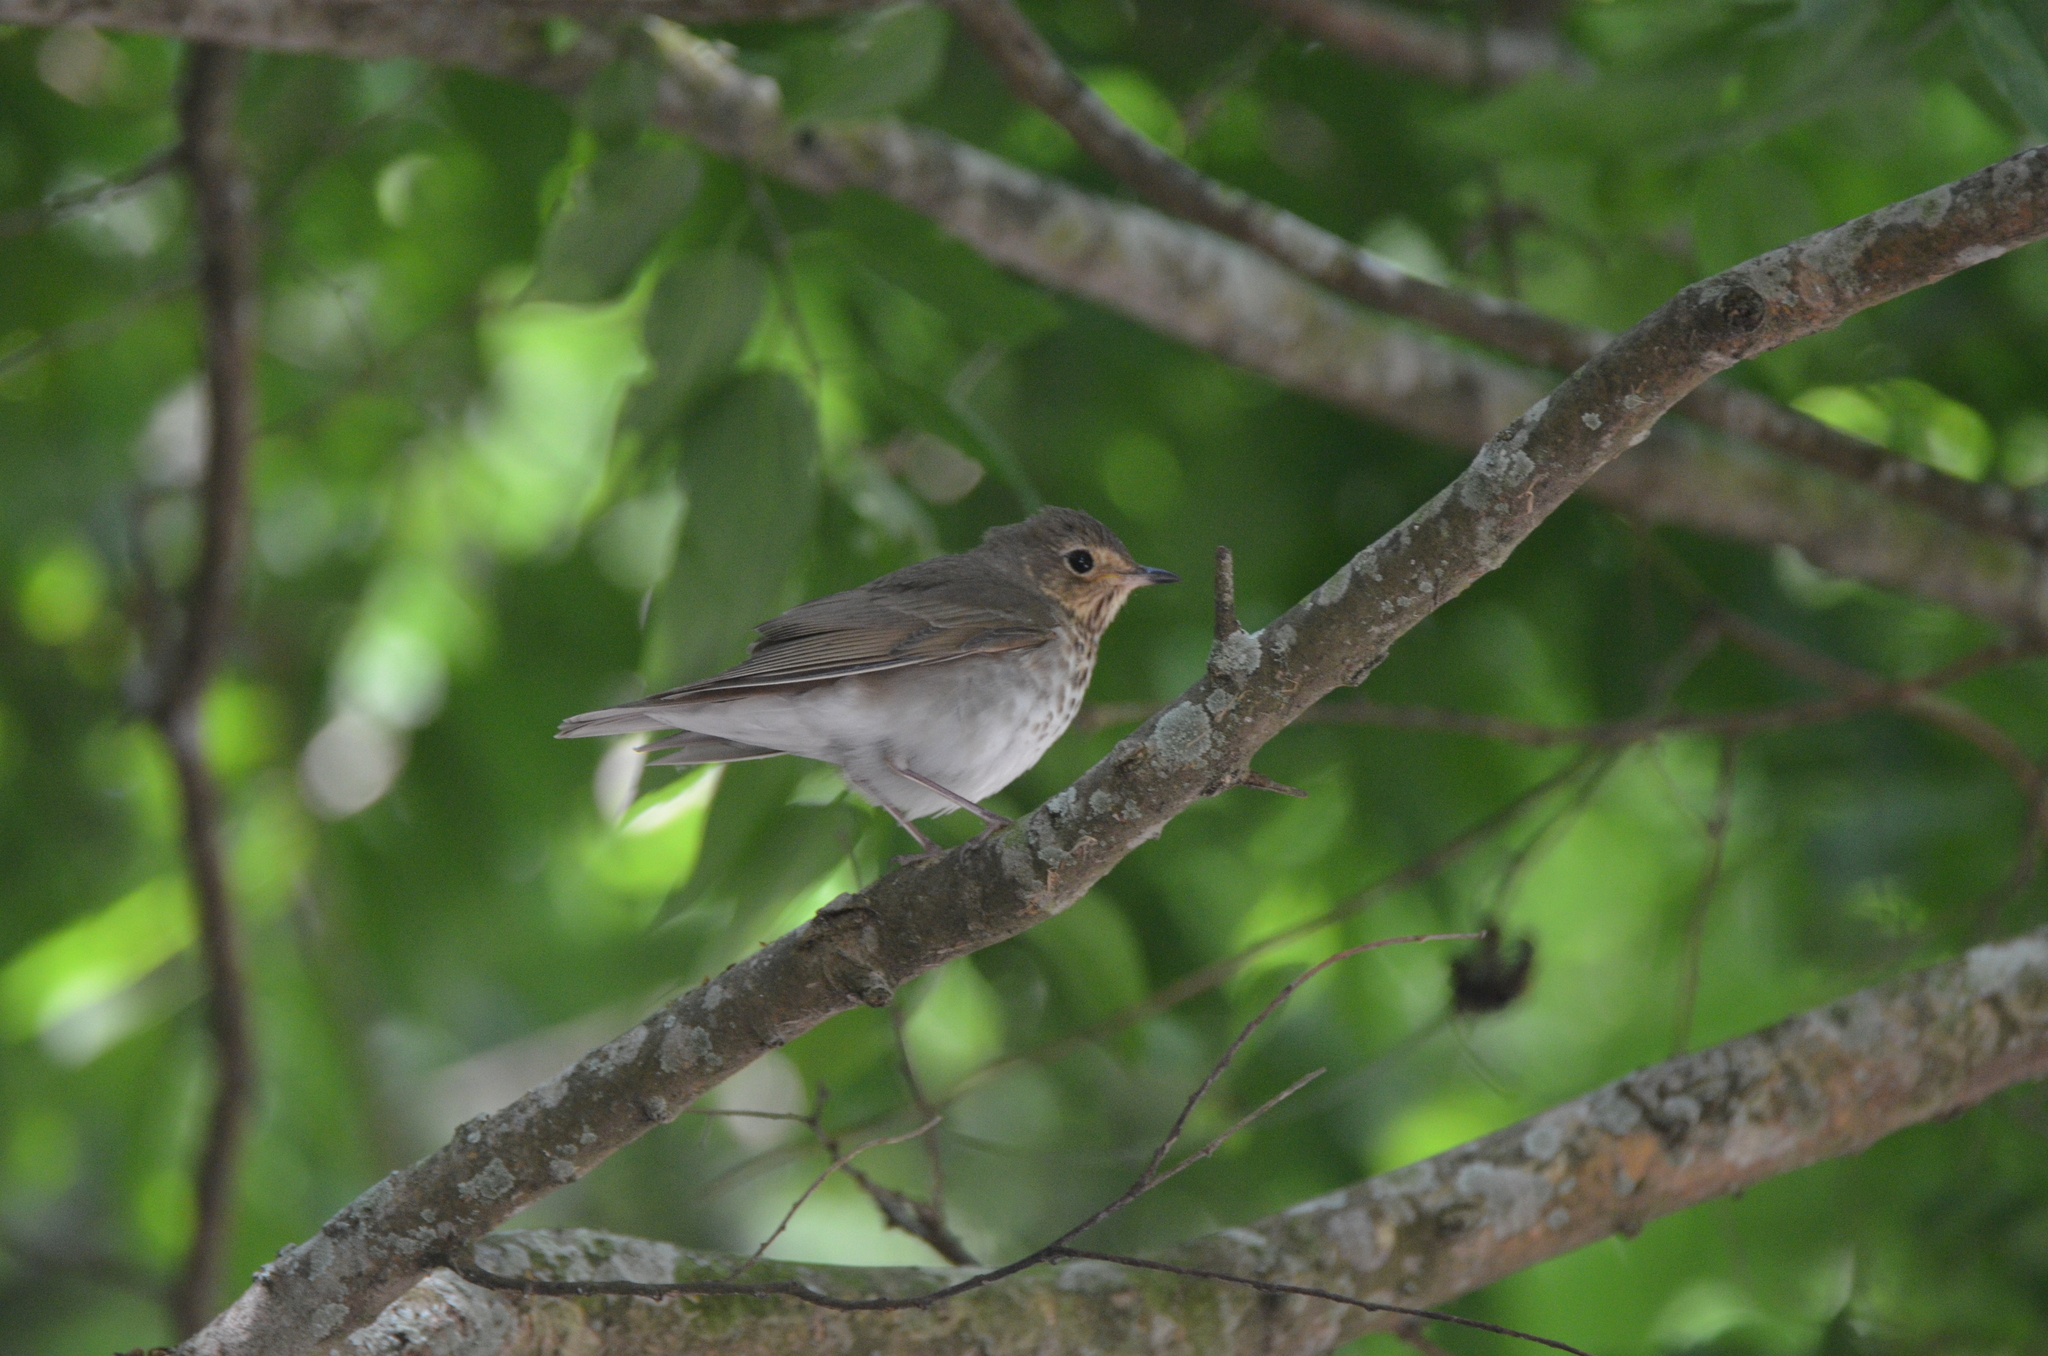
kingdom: Animalia
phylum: Chordata
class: Aves
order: Passeriformes
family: Turdidae
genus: Catharus
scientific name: Catharus ustulatus
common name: Swainson's thrush
